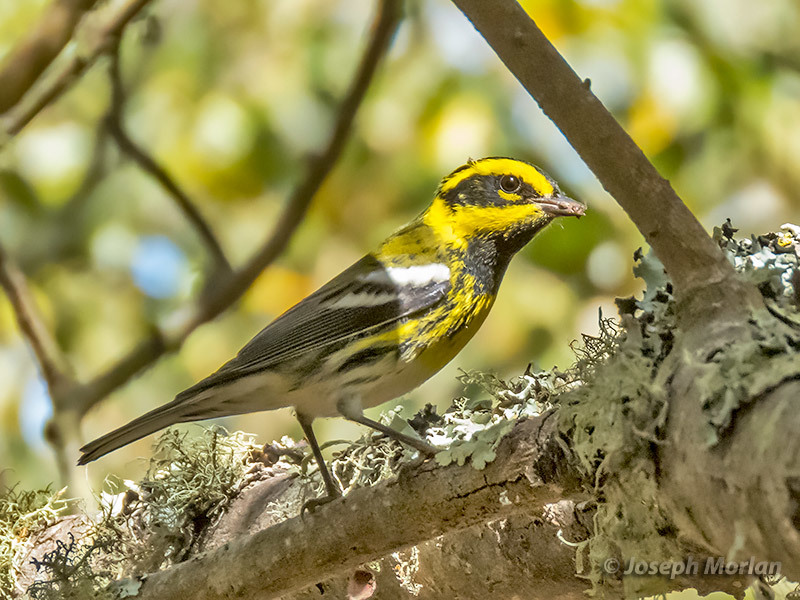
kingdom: Animalia
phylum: Chordata
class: Aves
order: Passeriformes
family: Parulidae
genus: Setophaga
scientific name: Setophaga townsendi
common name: Townsend's warbler
